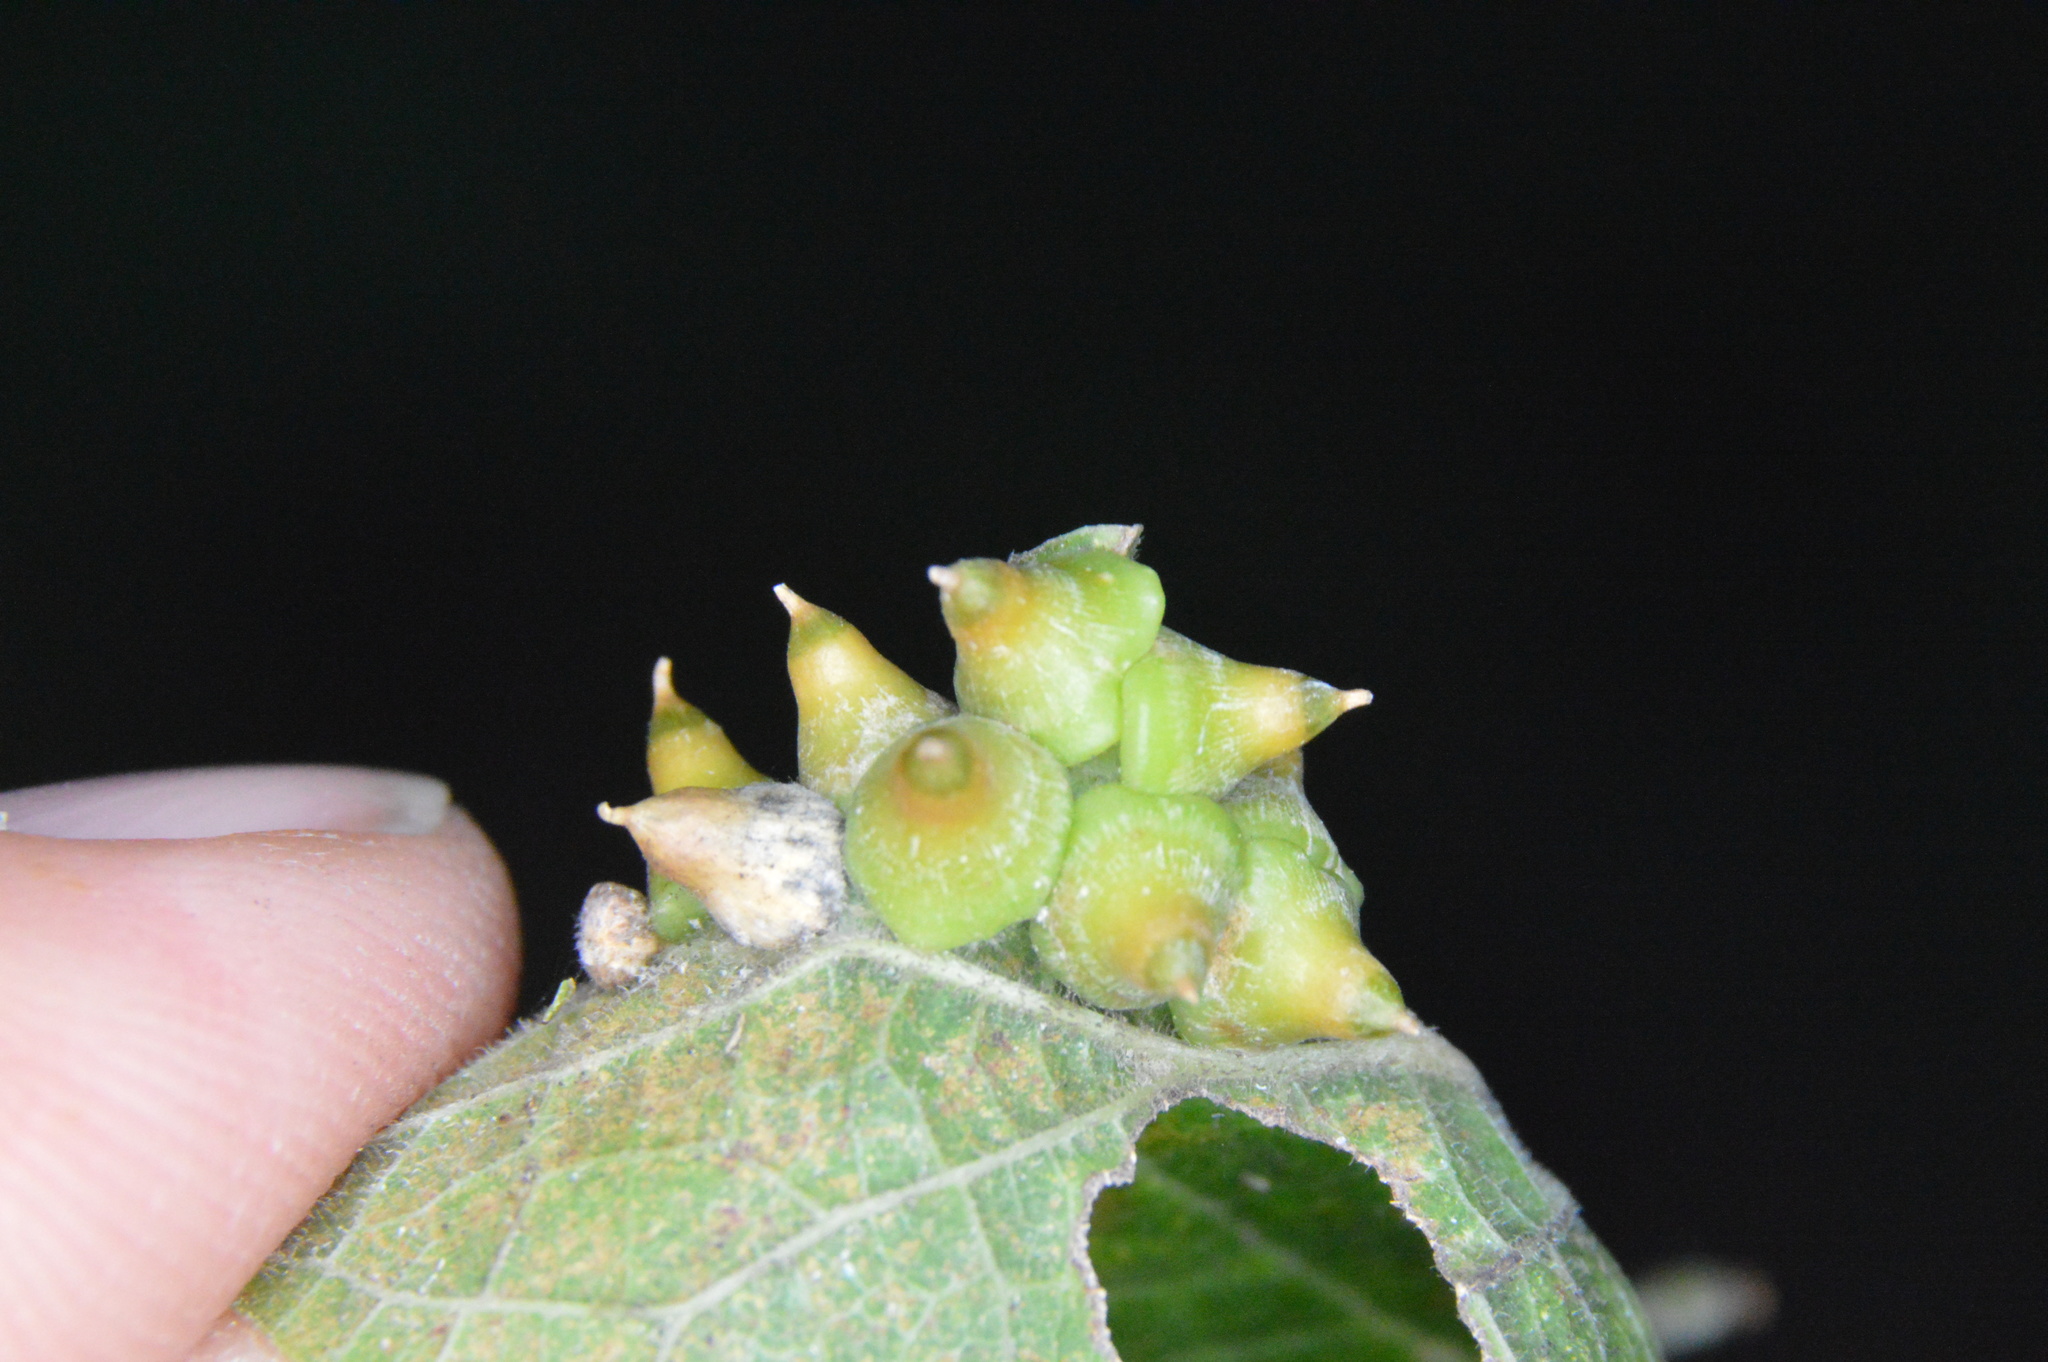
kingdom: Animalia
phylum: Arthropoda
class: Insecta
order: Diptera
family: Cecidomyiidae
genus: Celticecis
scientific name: Celticecis spiniformis
